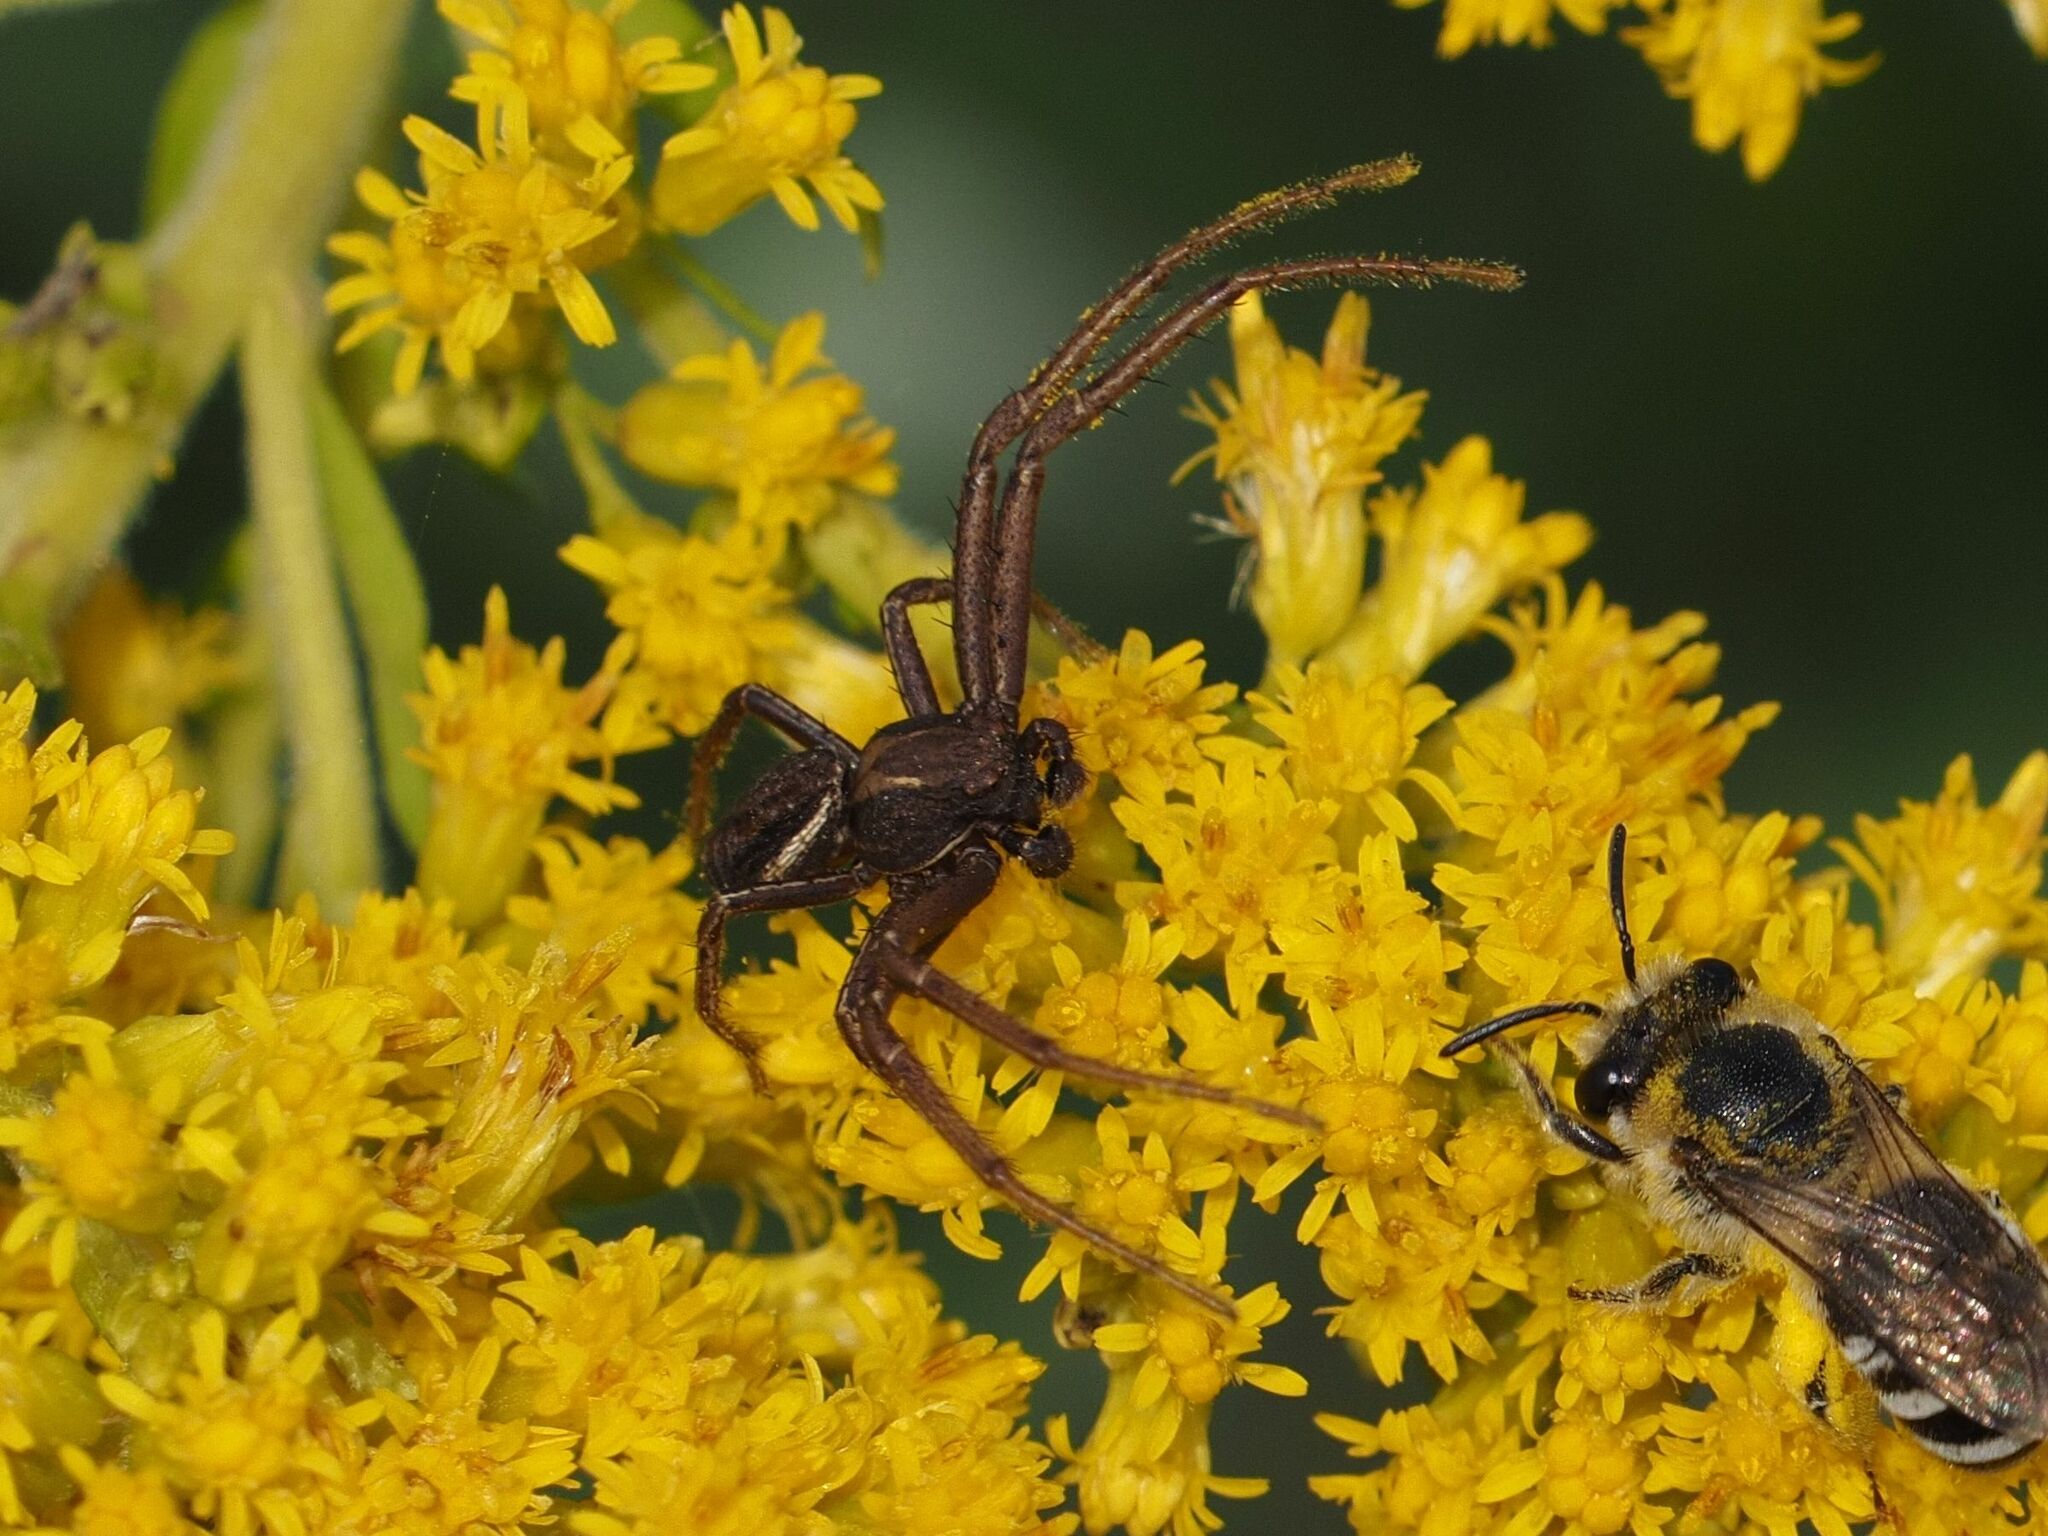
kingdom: Animalia
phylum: Arthropoda
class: Arachnida
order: Araneae
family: Thomisidae
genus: Spiracme
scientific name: Spiracme striatipes
